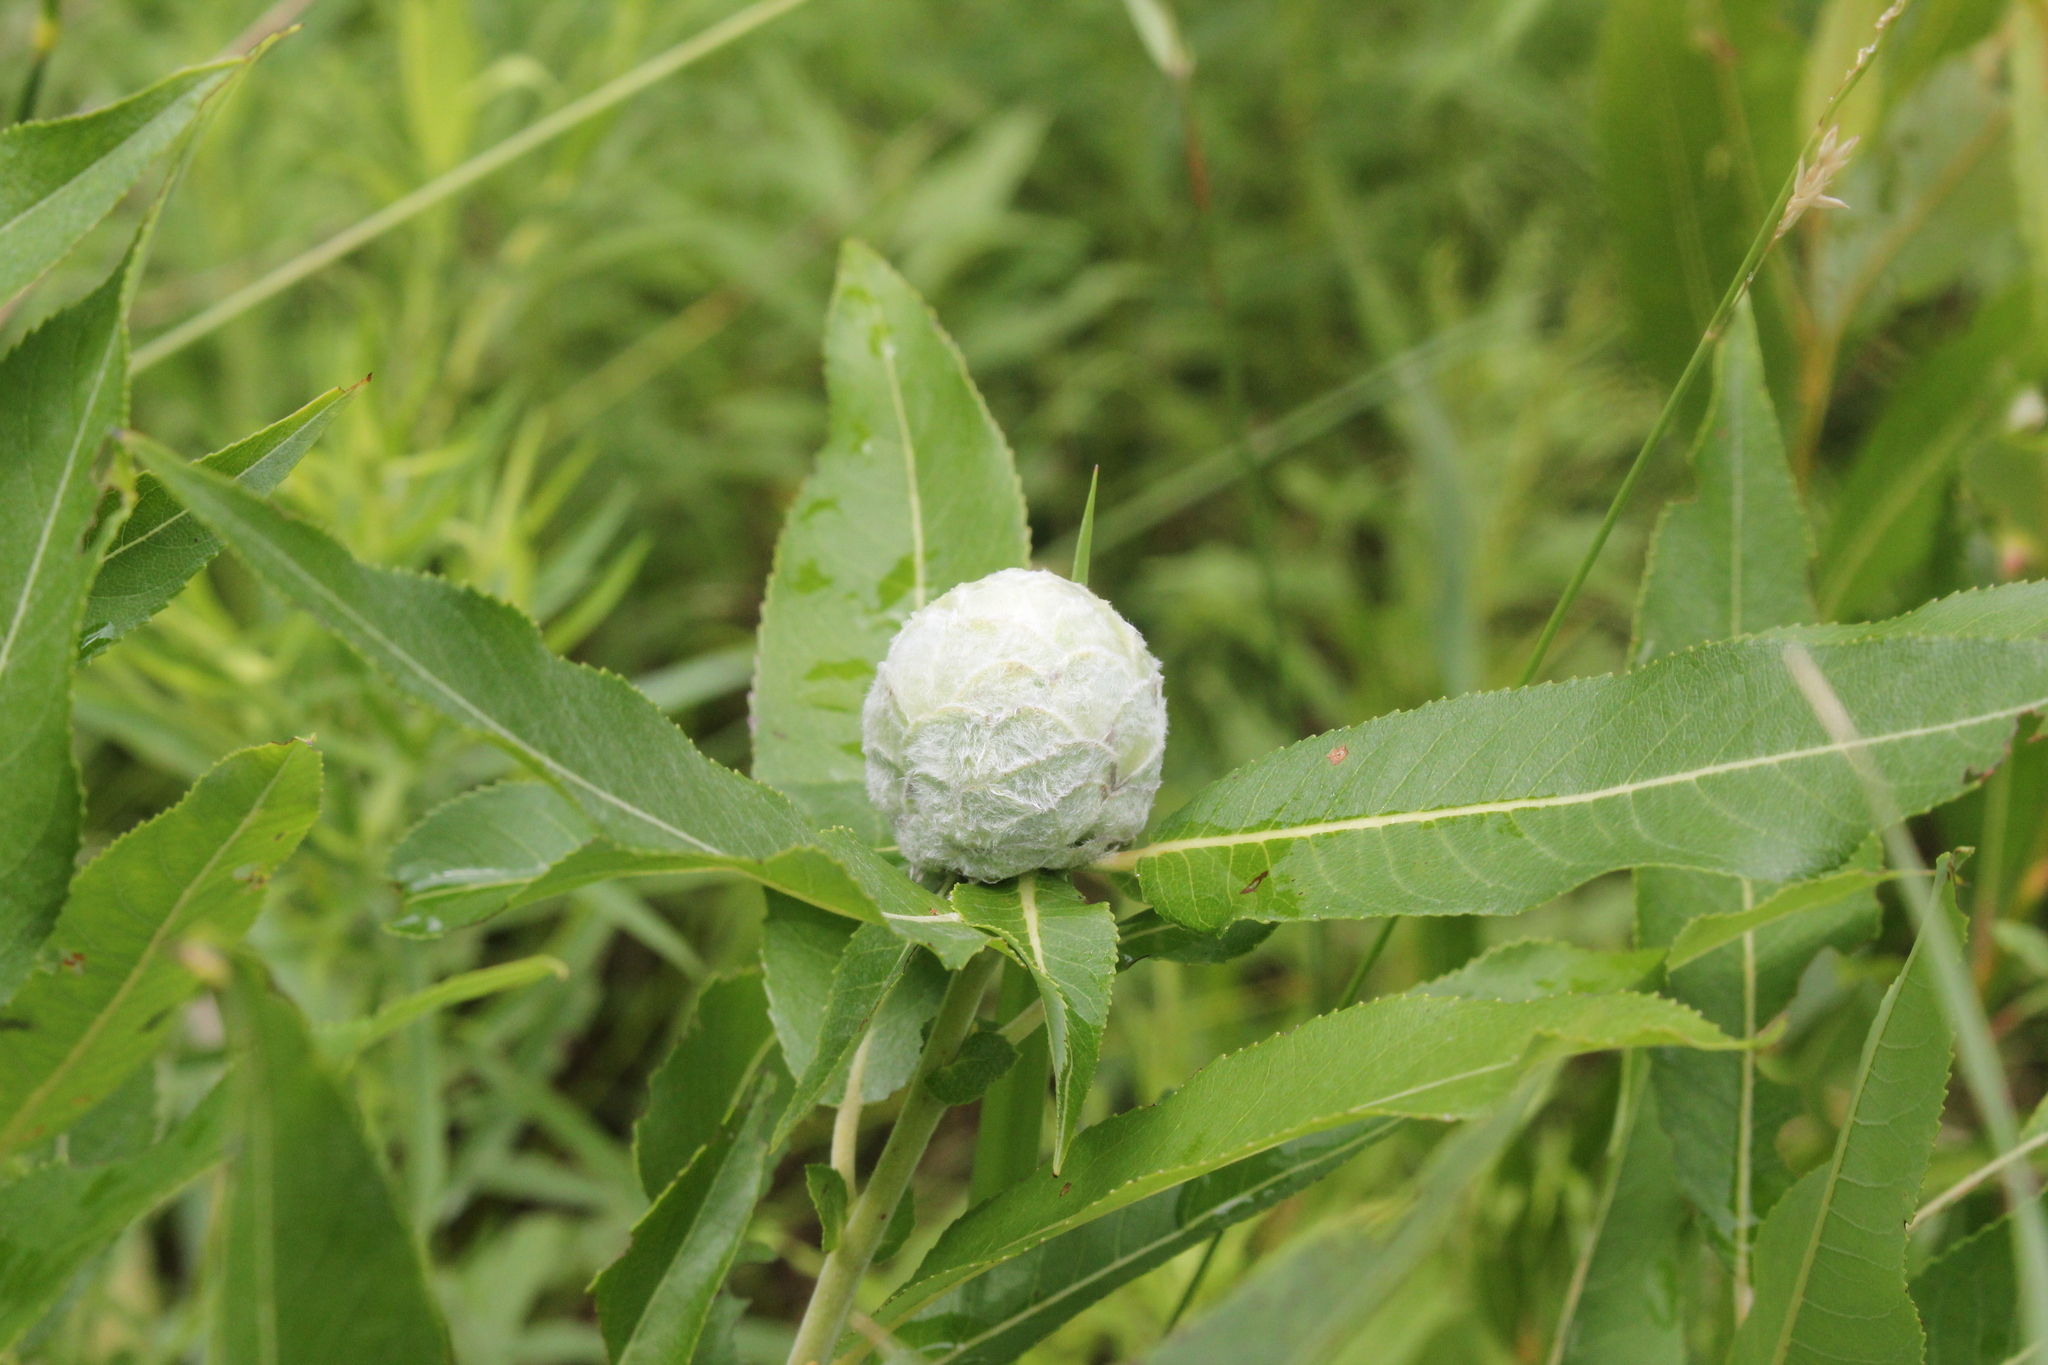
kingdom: Animalia
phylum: Arthropoda
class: Insecta
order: Diptera
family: Cecidomyiidae
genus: Rabdophaga
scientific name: Rabdophaga strobiloides
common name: Willow pinecone gall midge
